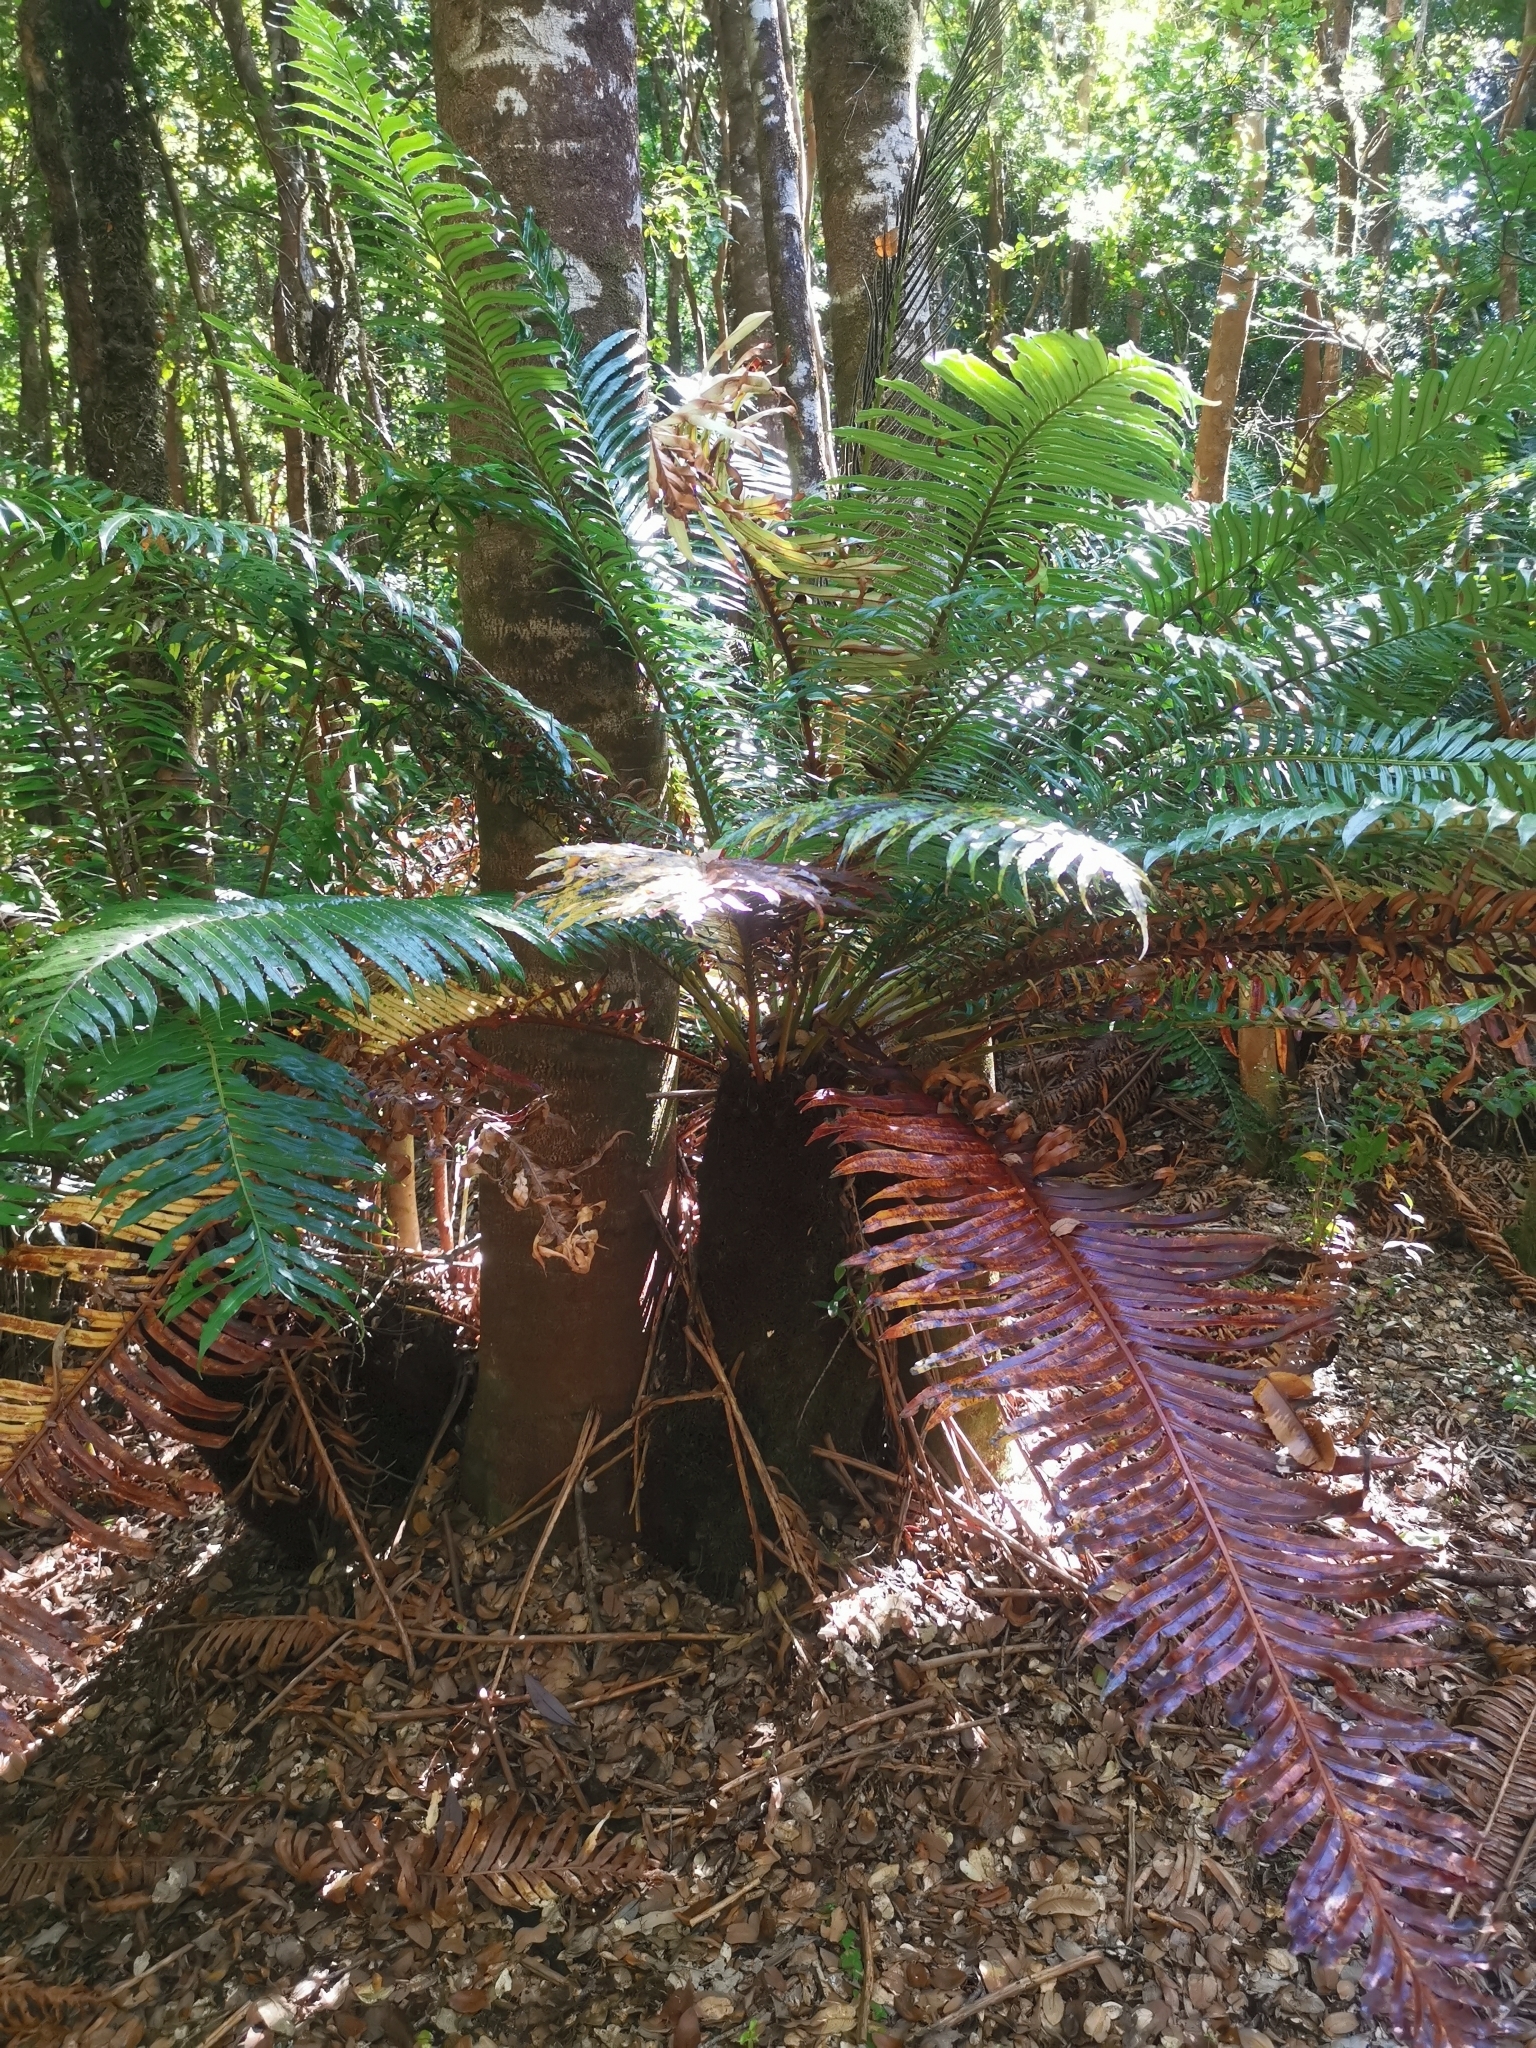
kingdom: Plantae
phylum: Tracheophyta
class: Polypodiopsida
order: Polypodiales
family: Blechnaceae
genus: Lomariocycas
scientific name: Lomariocycas magellanica
